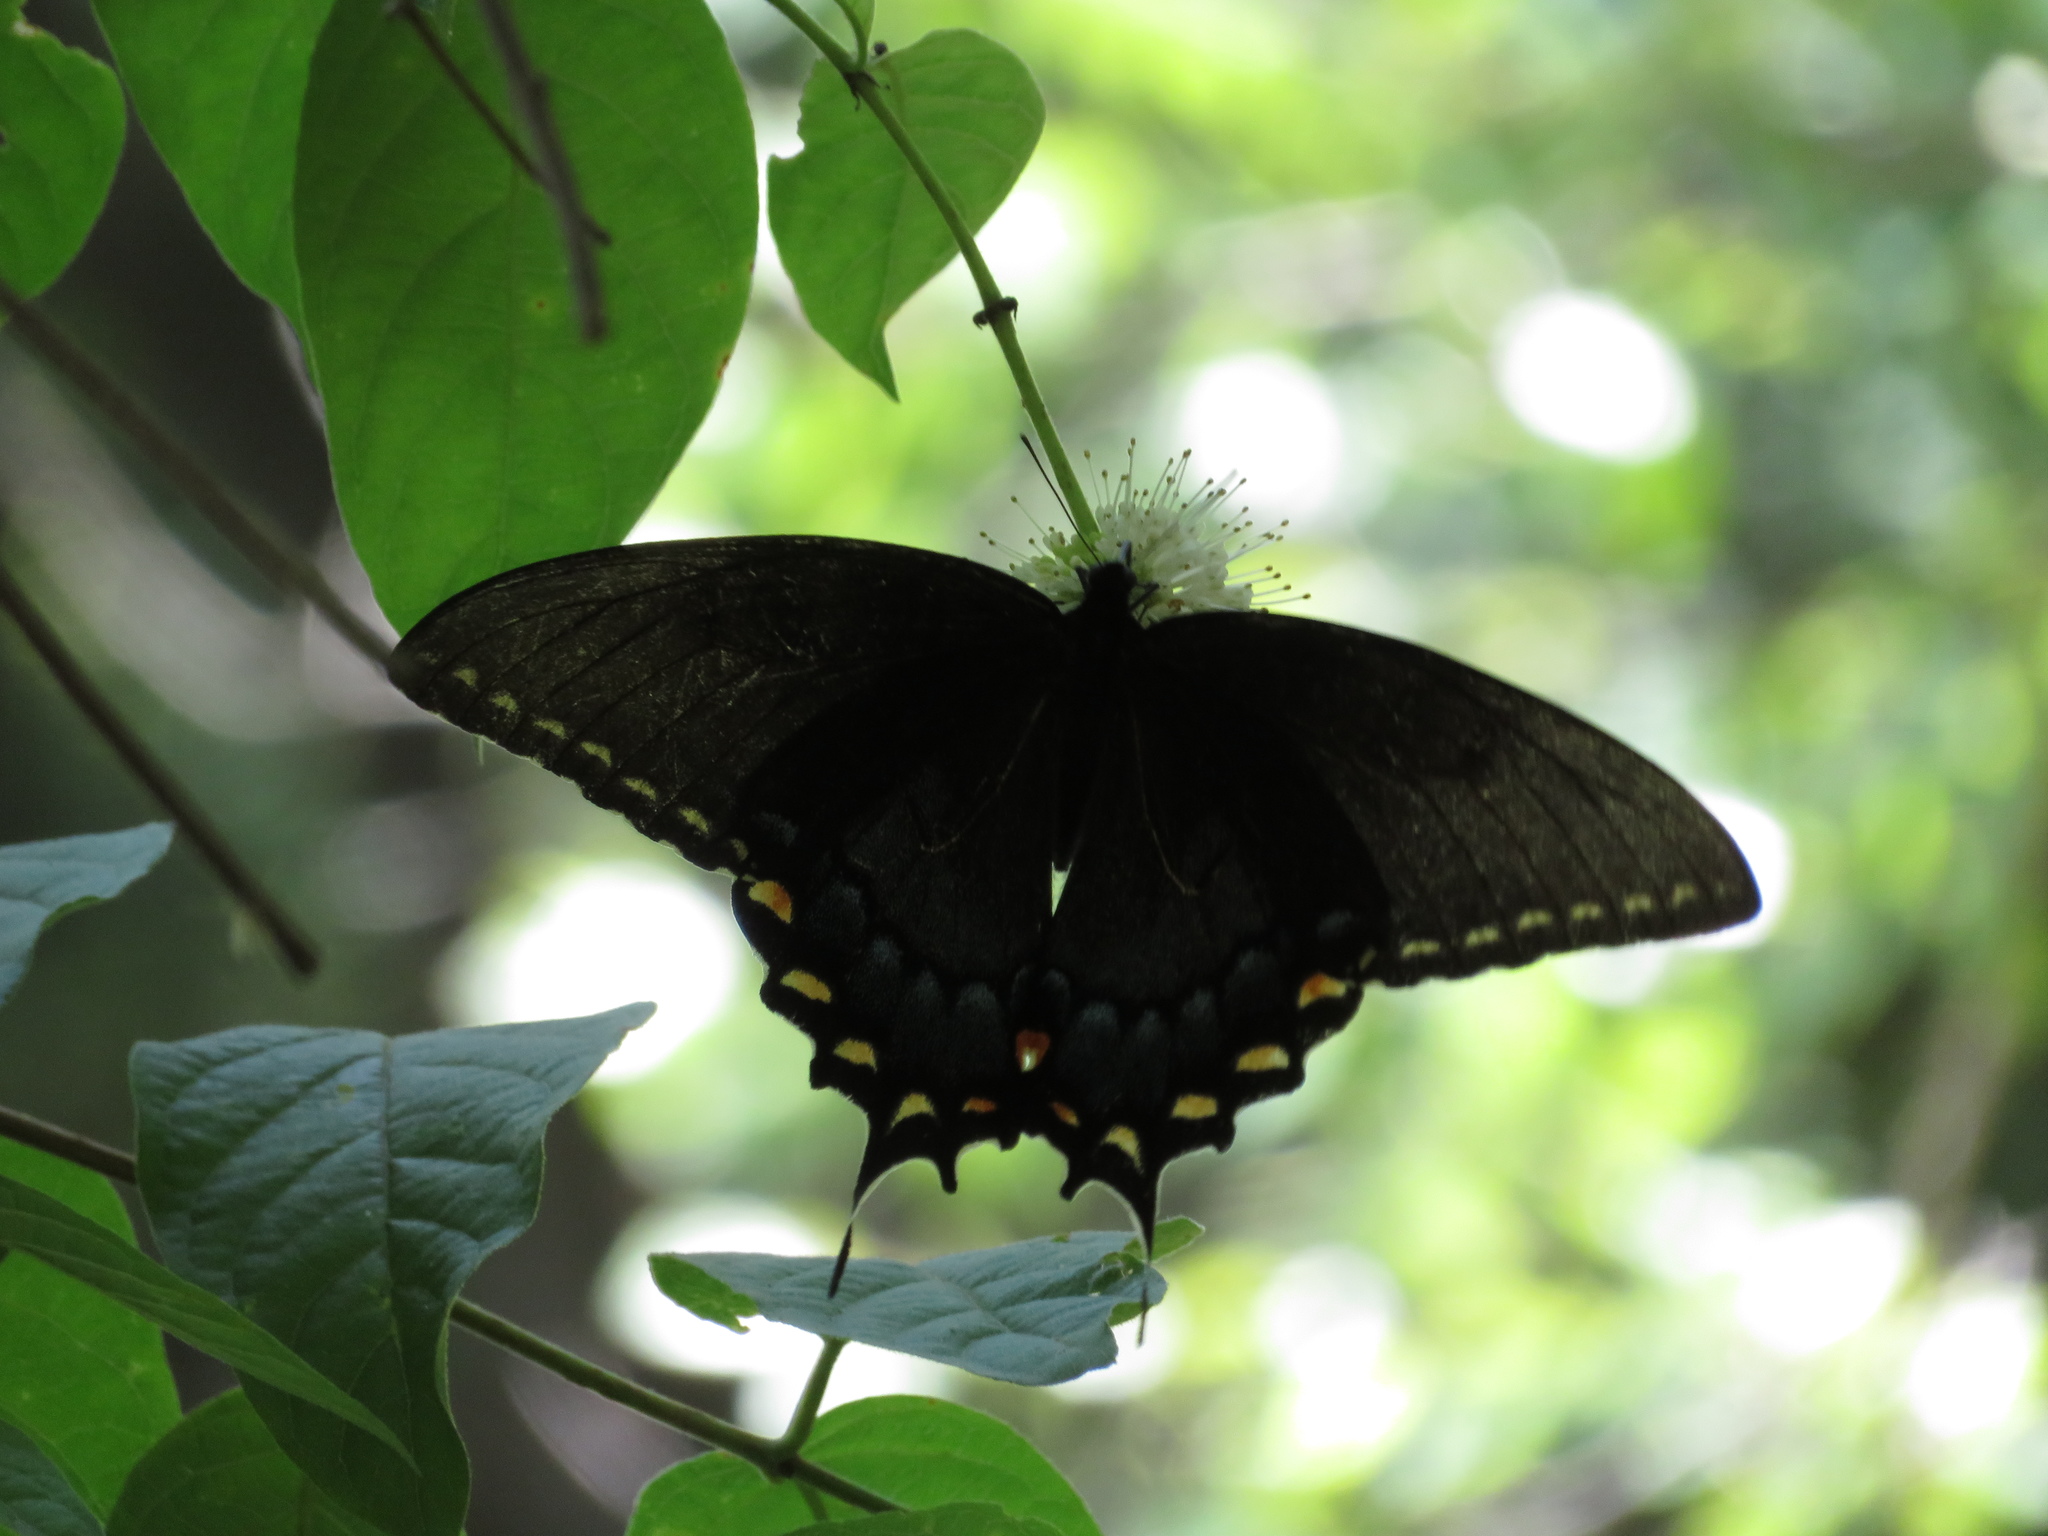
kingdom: Animalia
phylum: Arthropoda
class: Insecta
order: Lepidoptera
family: Papilionidae
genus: Papilio
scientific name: Papilio glaucus
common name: Tiger swallowtail
